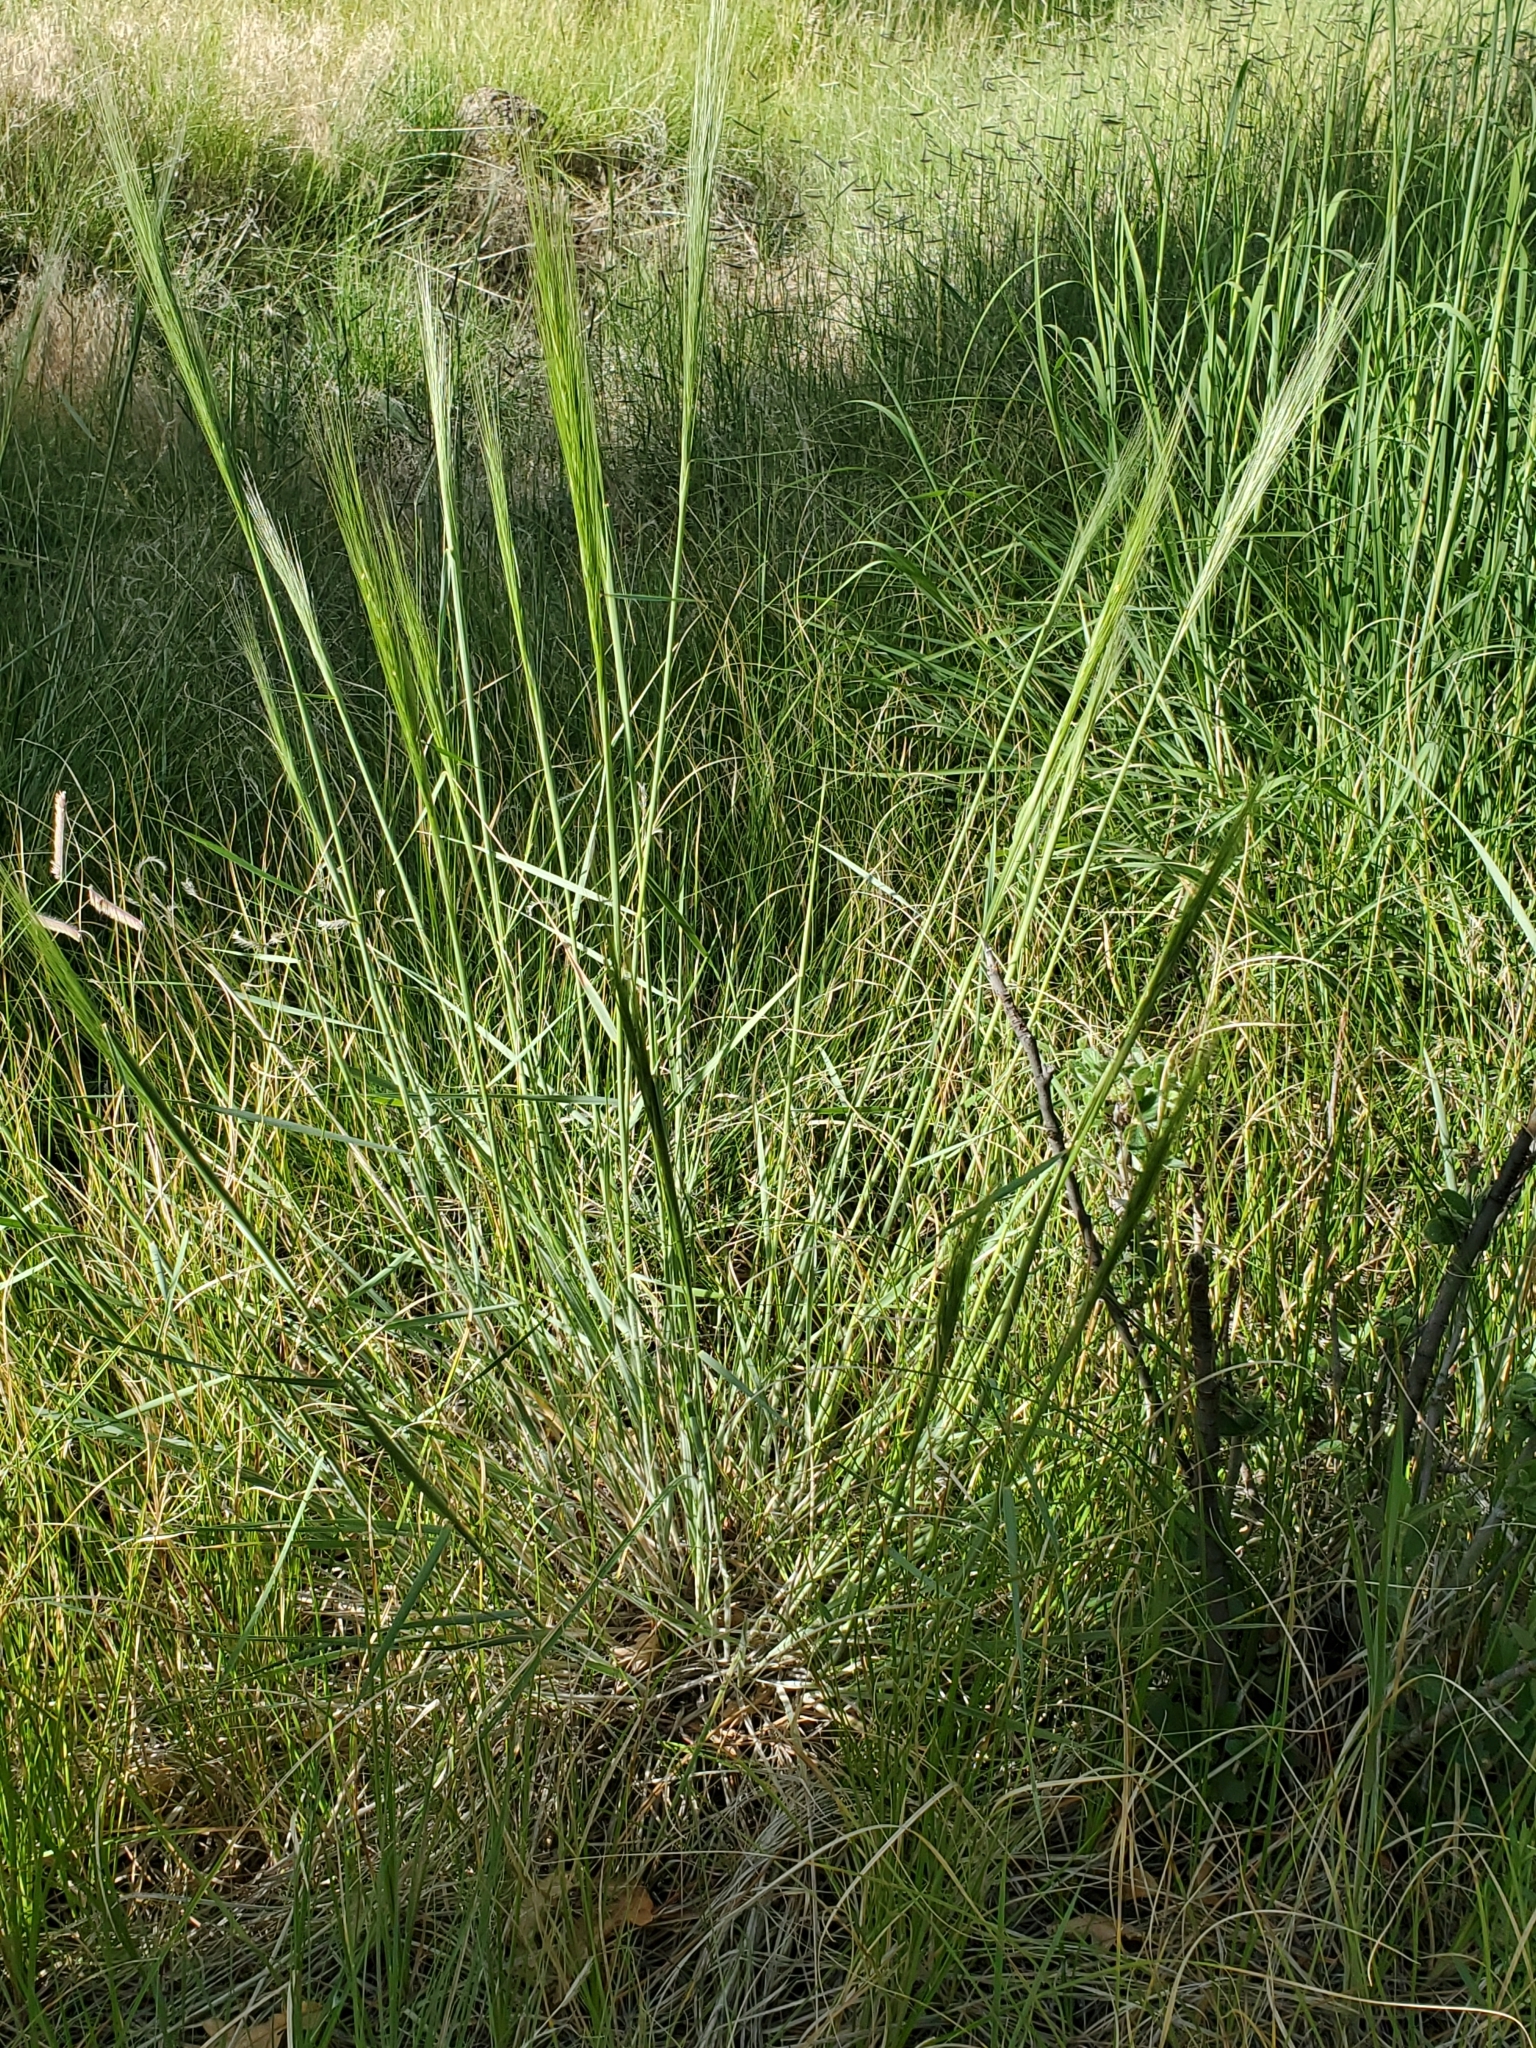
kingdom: Plantae
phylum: Tracheophyta
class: Liliopsida
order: Poales
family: Poaceae
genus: Elymus
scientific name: Elymus elymoides
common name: Bottlebrush squirreltail
